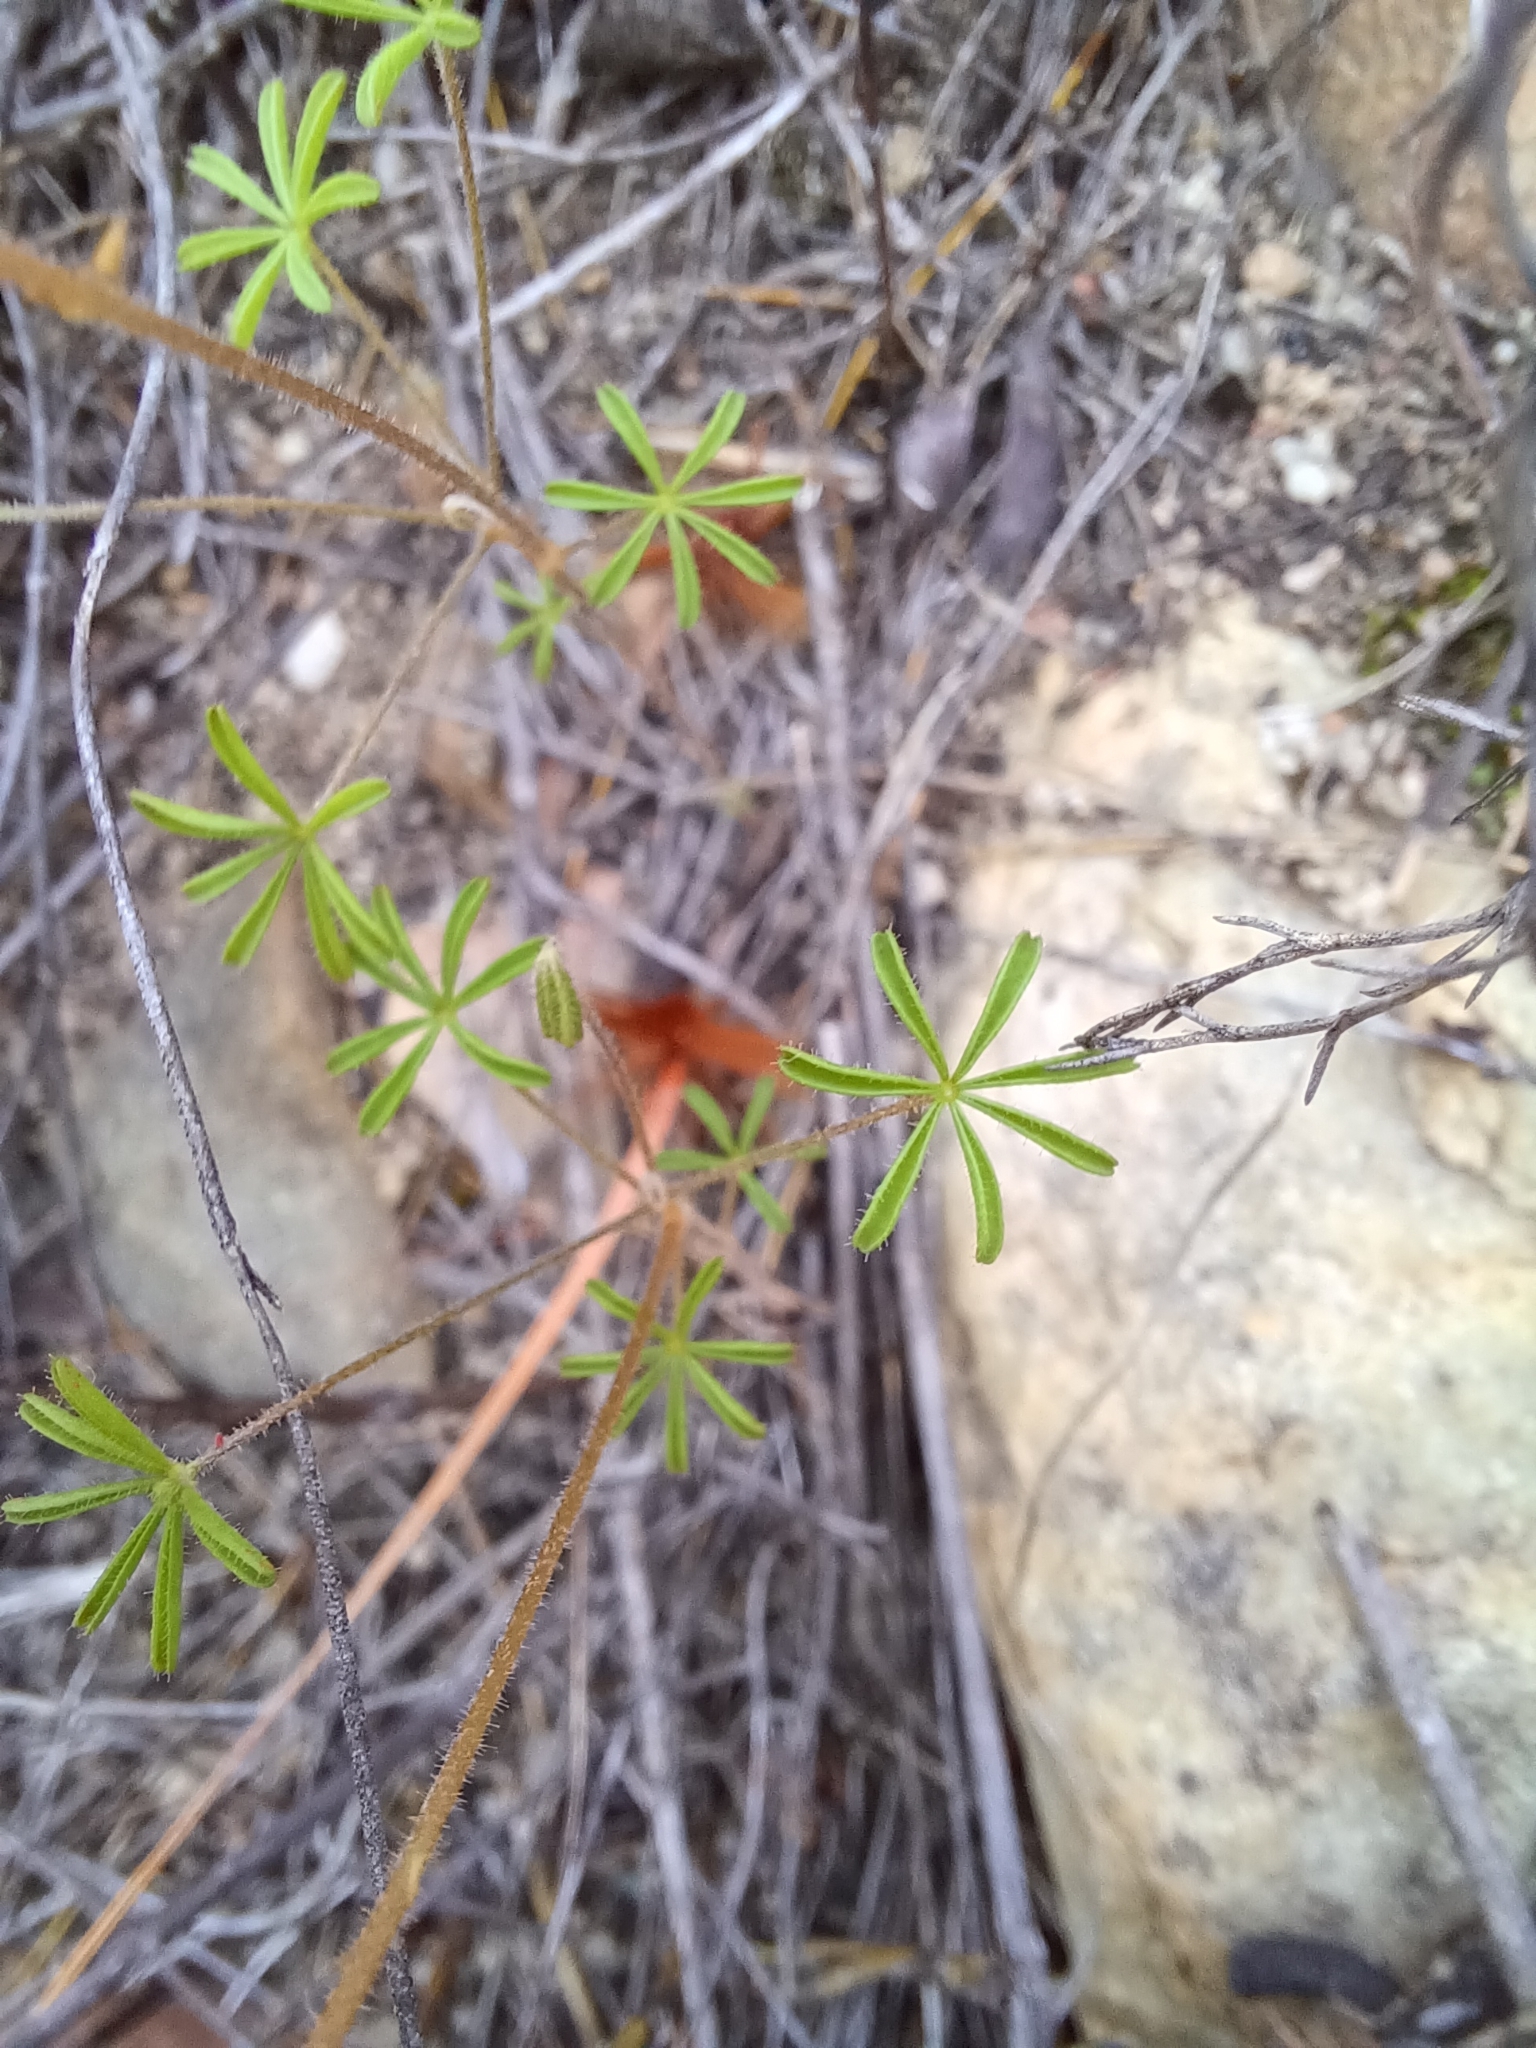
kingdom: Plantae
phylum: Tracheophyta
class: Magnoliopsida
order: Oxalidales
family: Oxalidaceae
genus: Oxalis
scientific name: Oxalis engleriana
